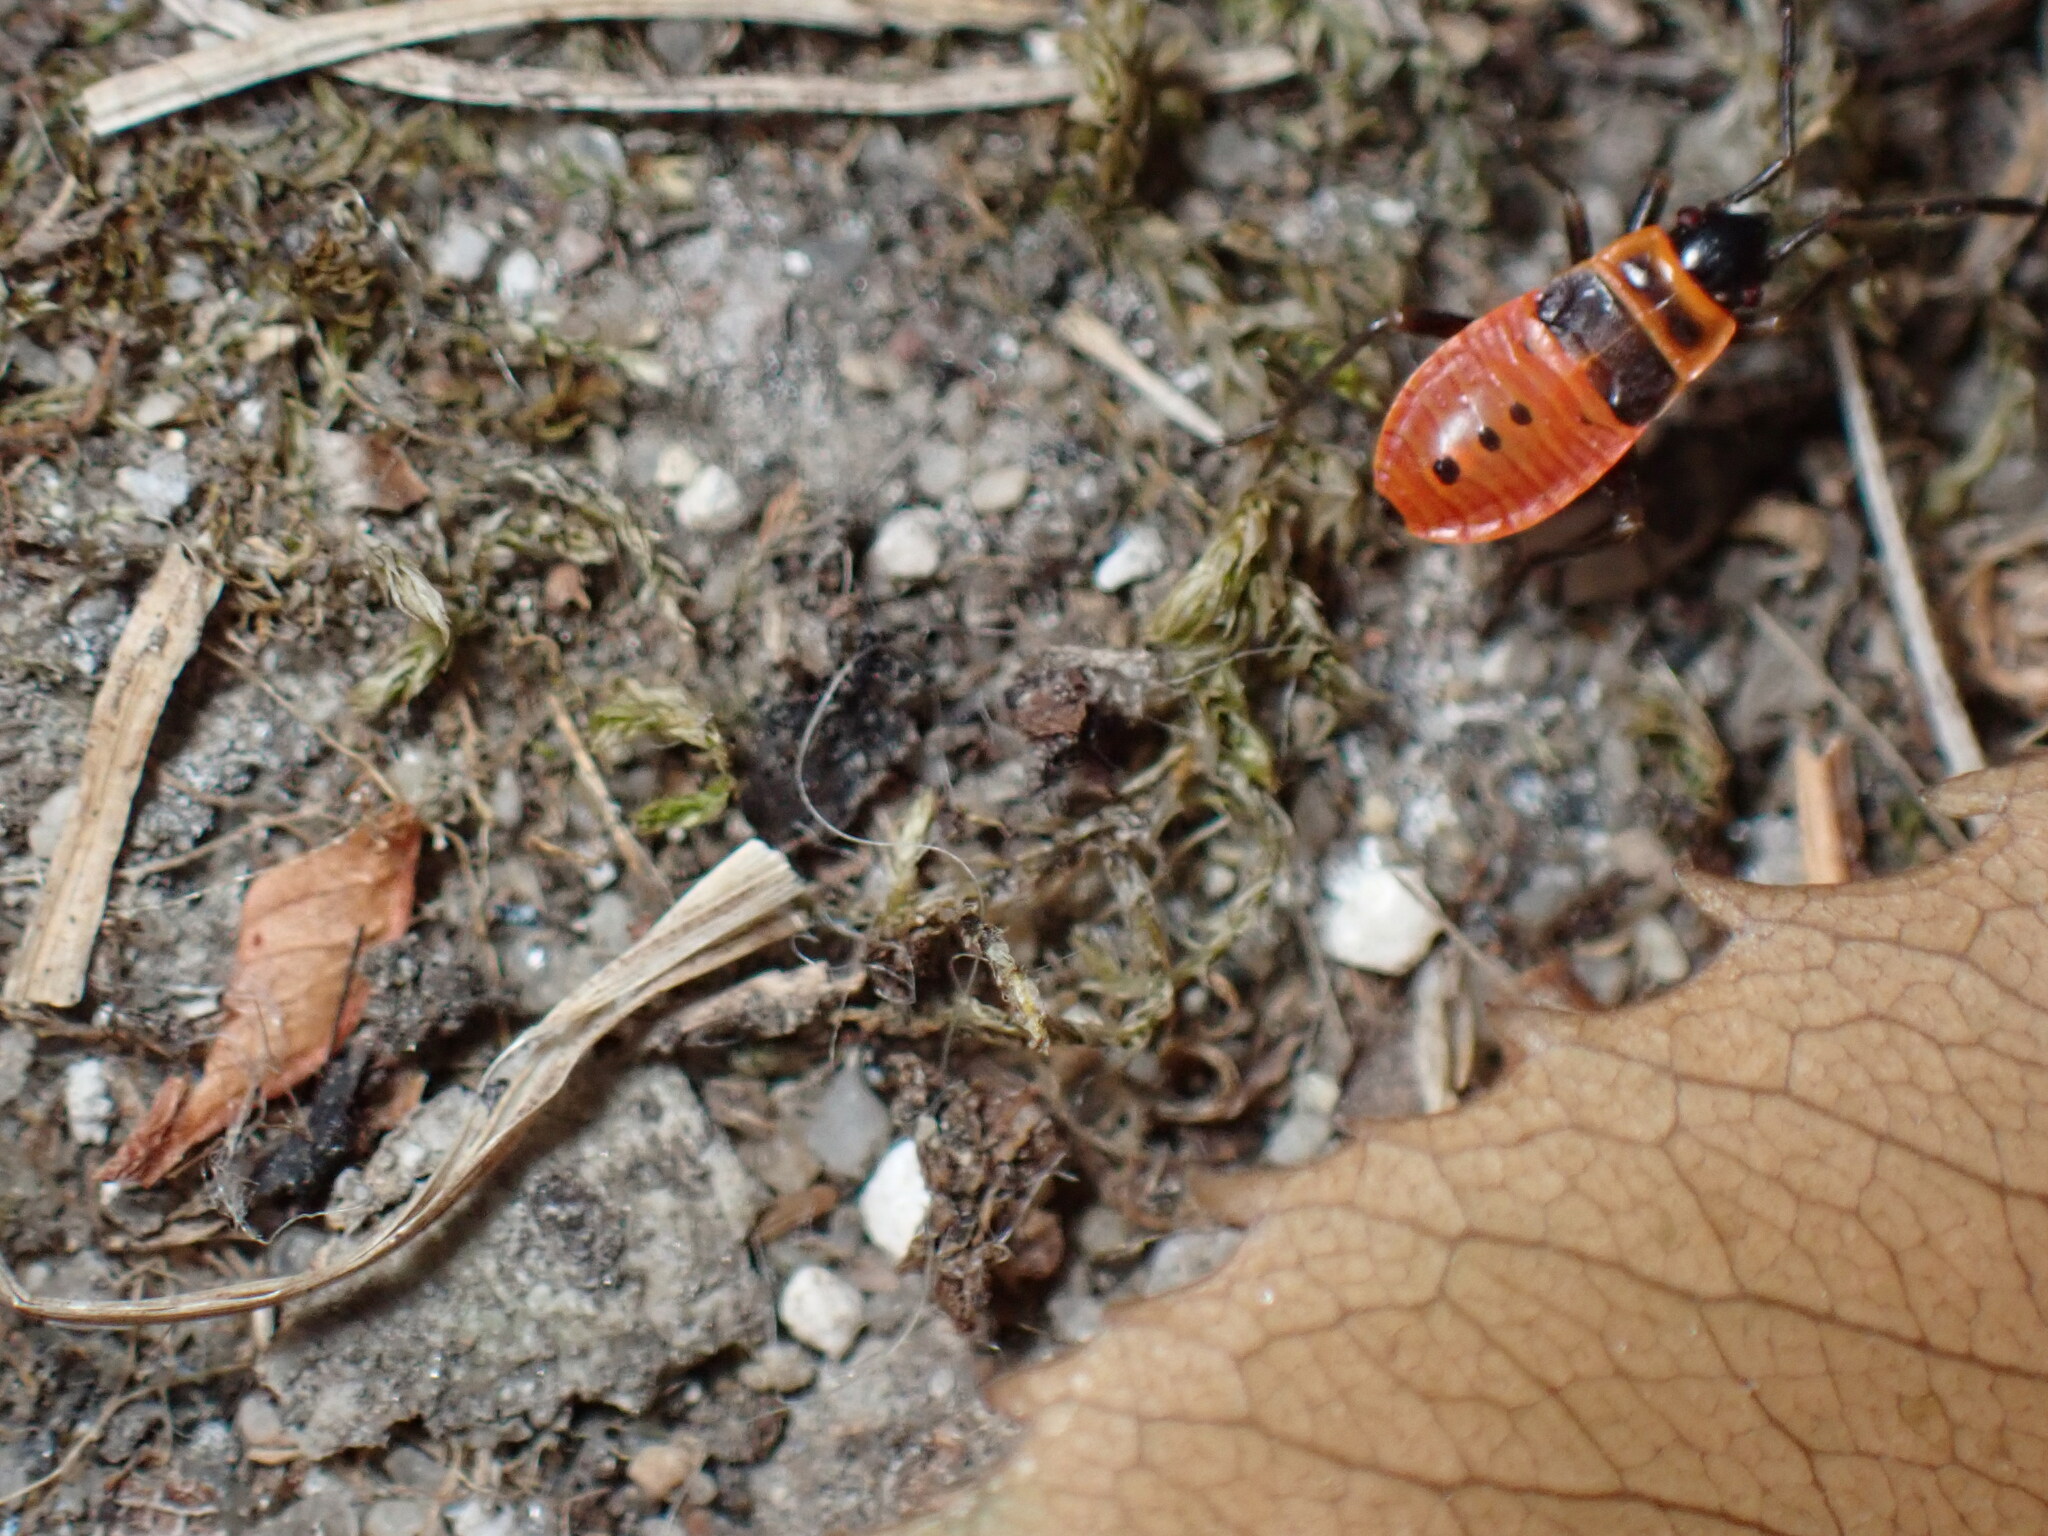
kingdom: Animalia
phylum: Arthropoda
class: Insecta
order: Hemiptera
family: Pyrrhocoridae
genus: Pyrrhocoris
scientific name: Pyrrhocoris apterus
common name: Firebug
